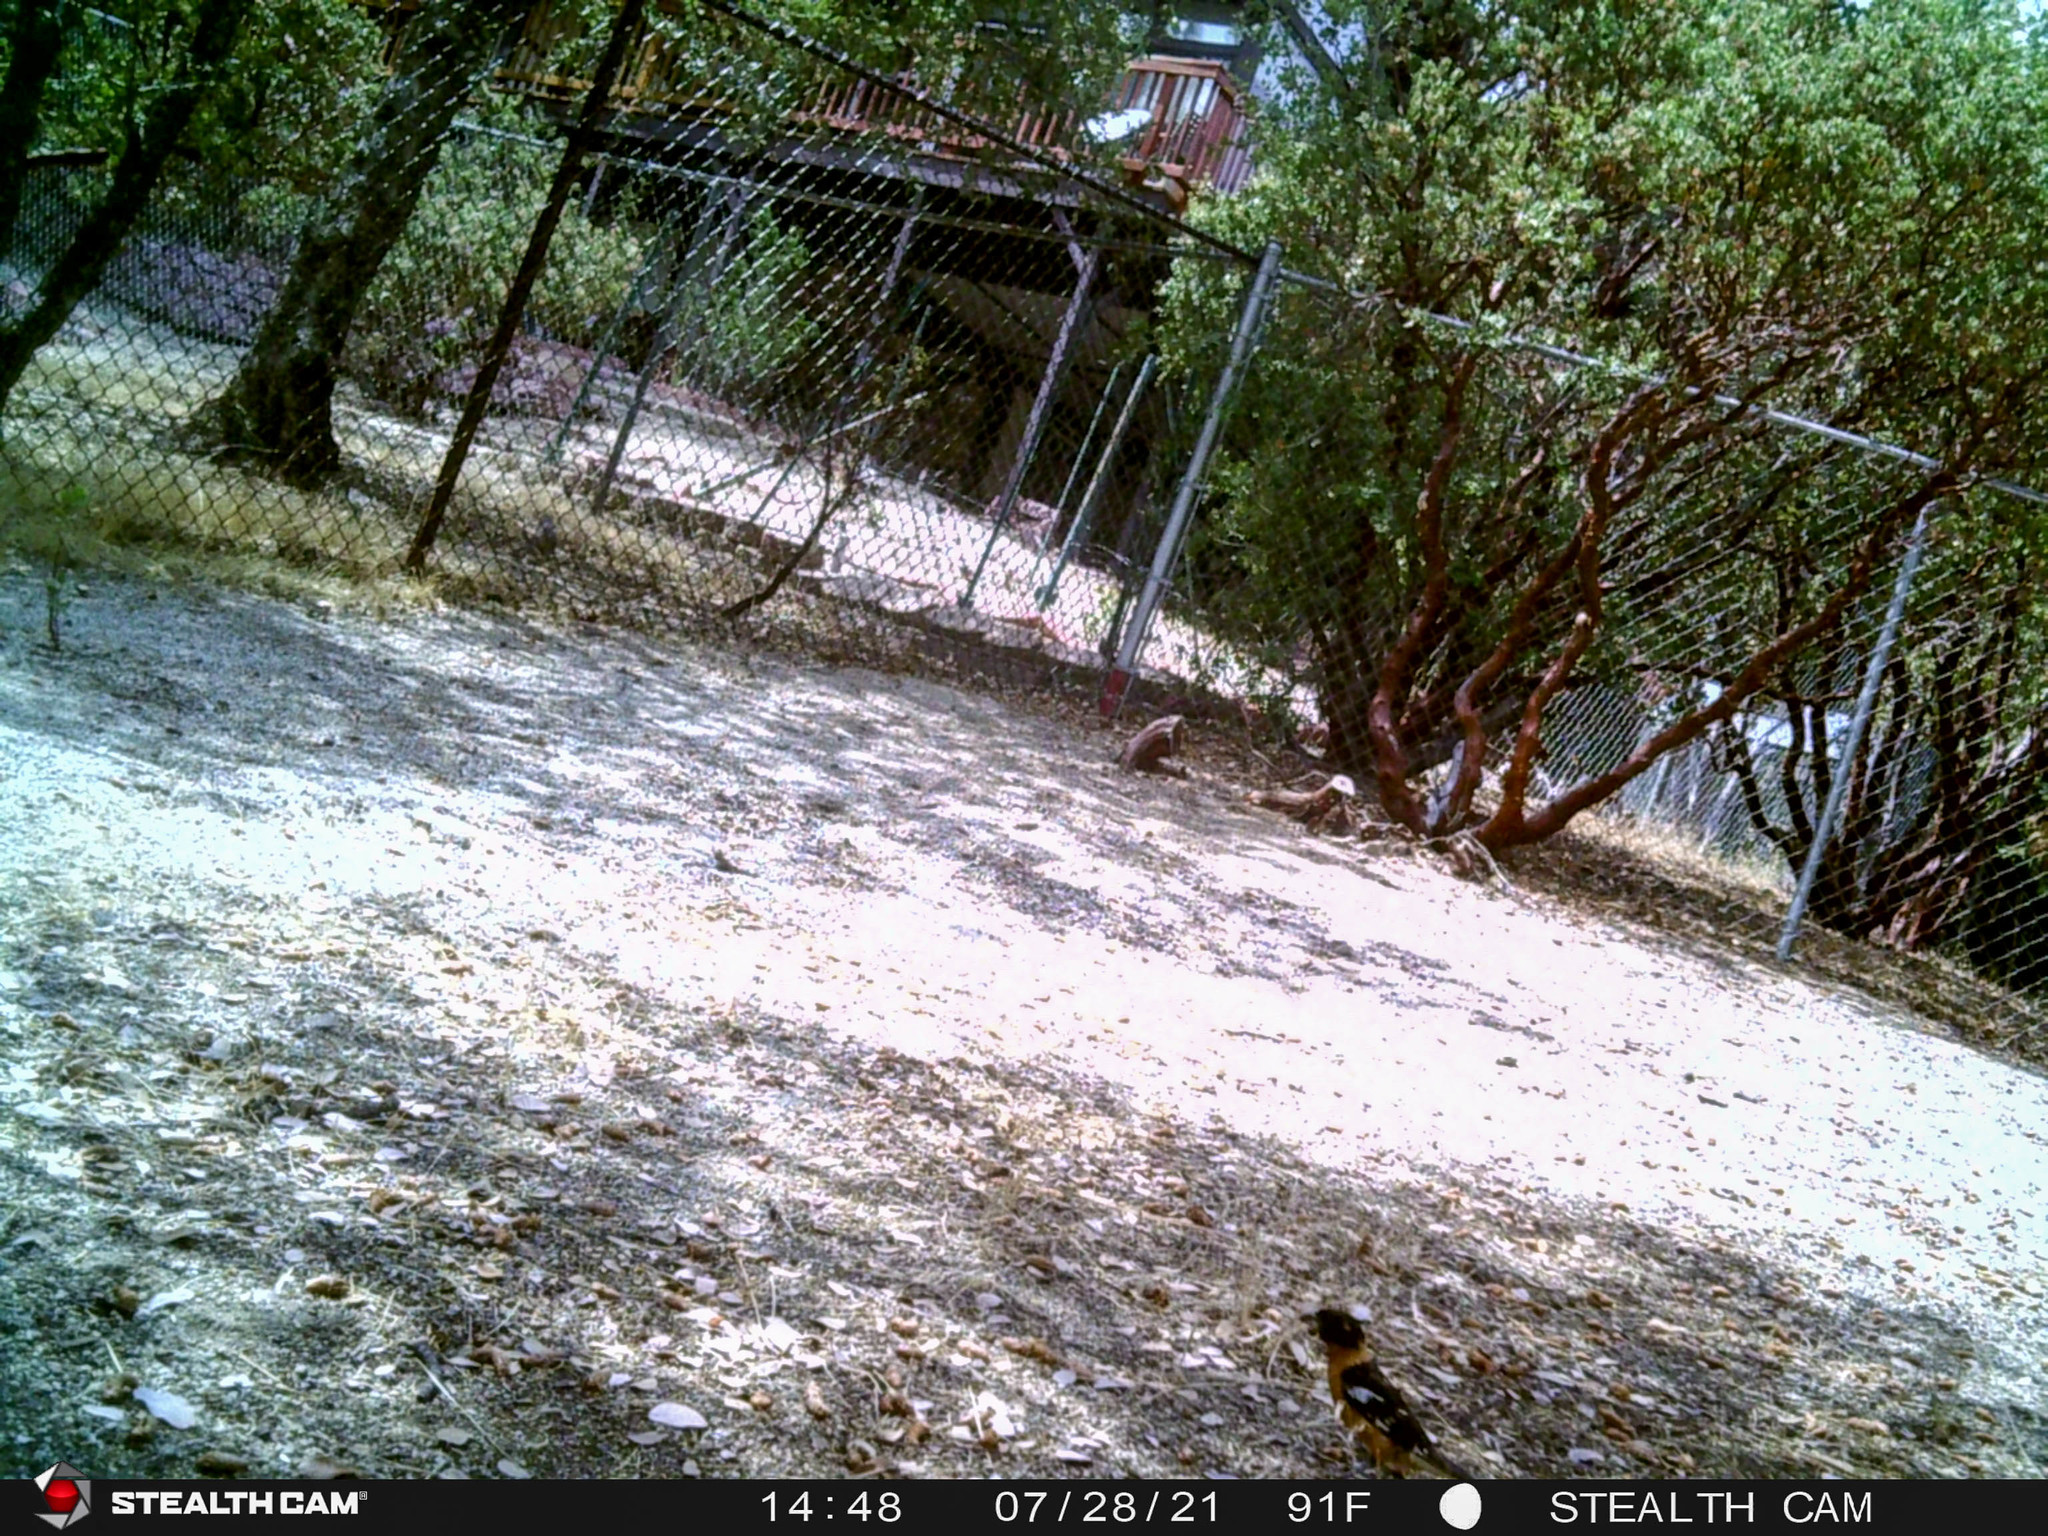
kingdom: Animalia
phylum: Chordata
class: Aves
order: Passeriformes
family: Cardinalidae
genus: Pheucticus
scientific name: Pheucticus melanocephalus
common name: Black-headed grosbeak
